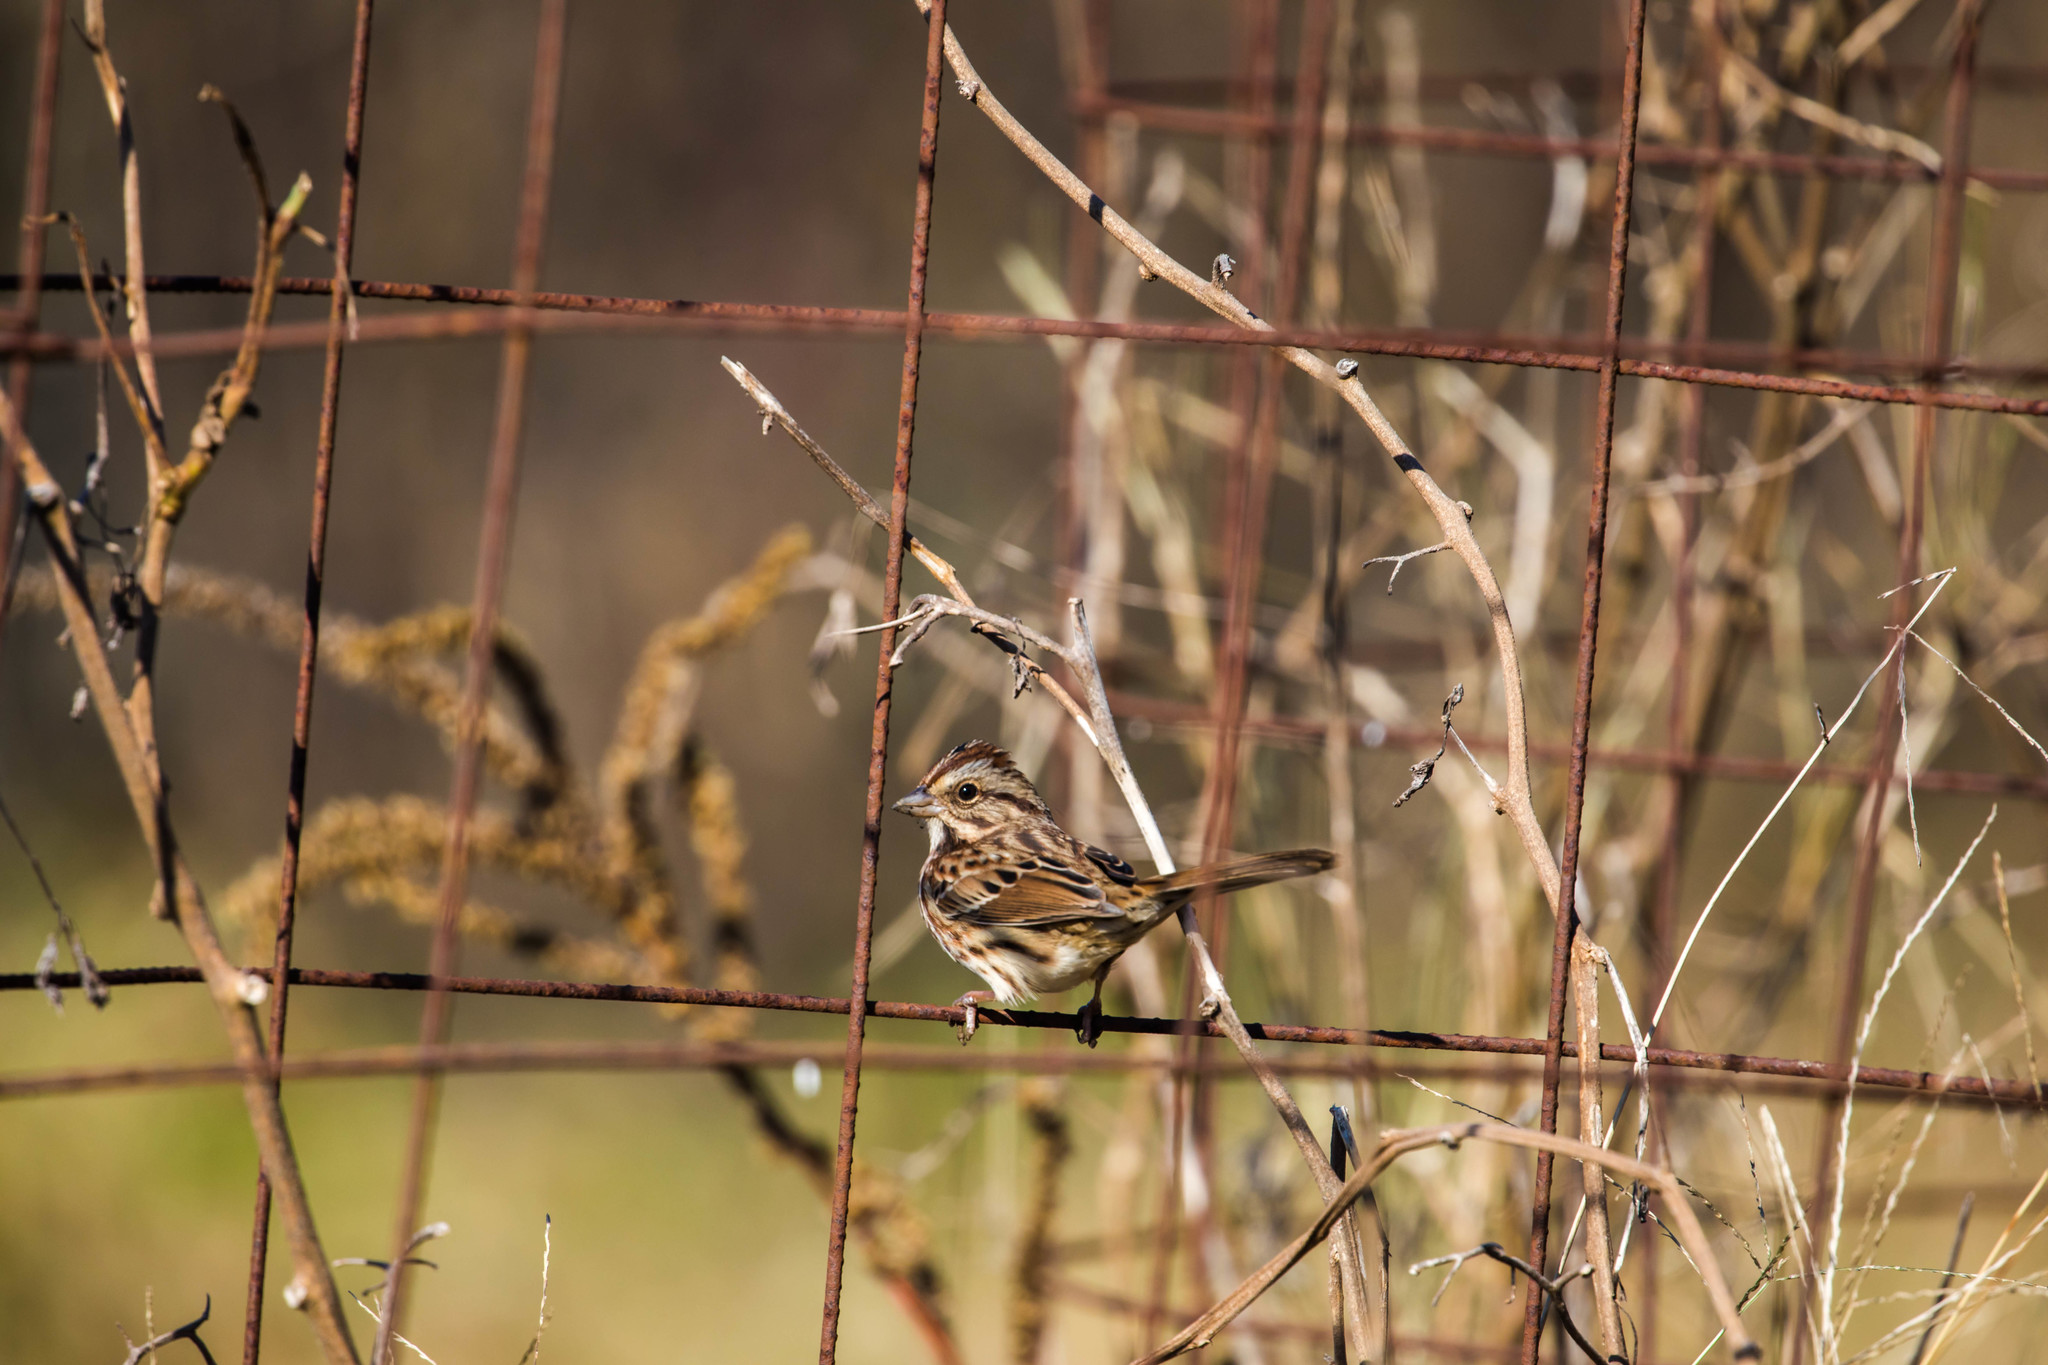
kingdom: Animalia
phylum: Chordata
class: Aves
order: Passeriformes
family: Passerellidae
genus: Melospiza
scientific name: Melospiza melodia
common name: Song sparrow
